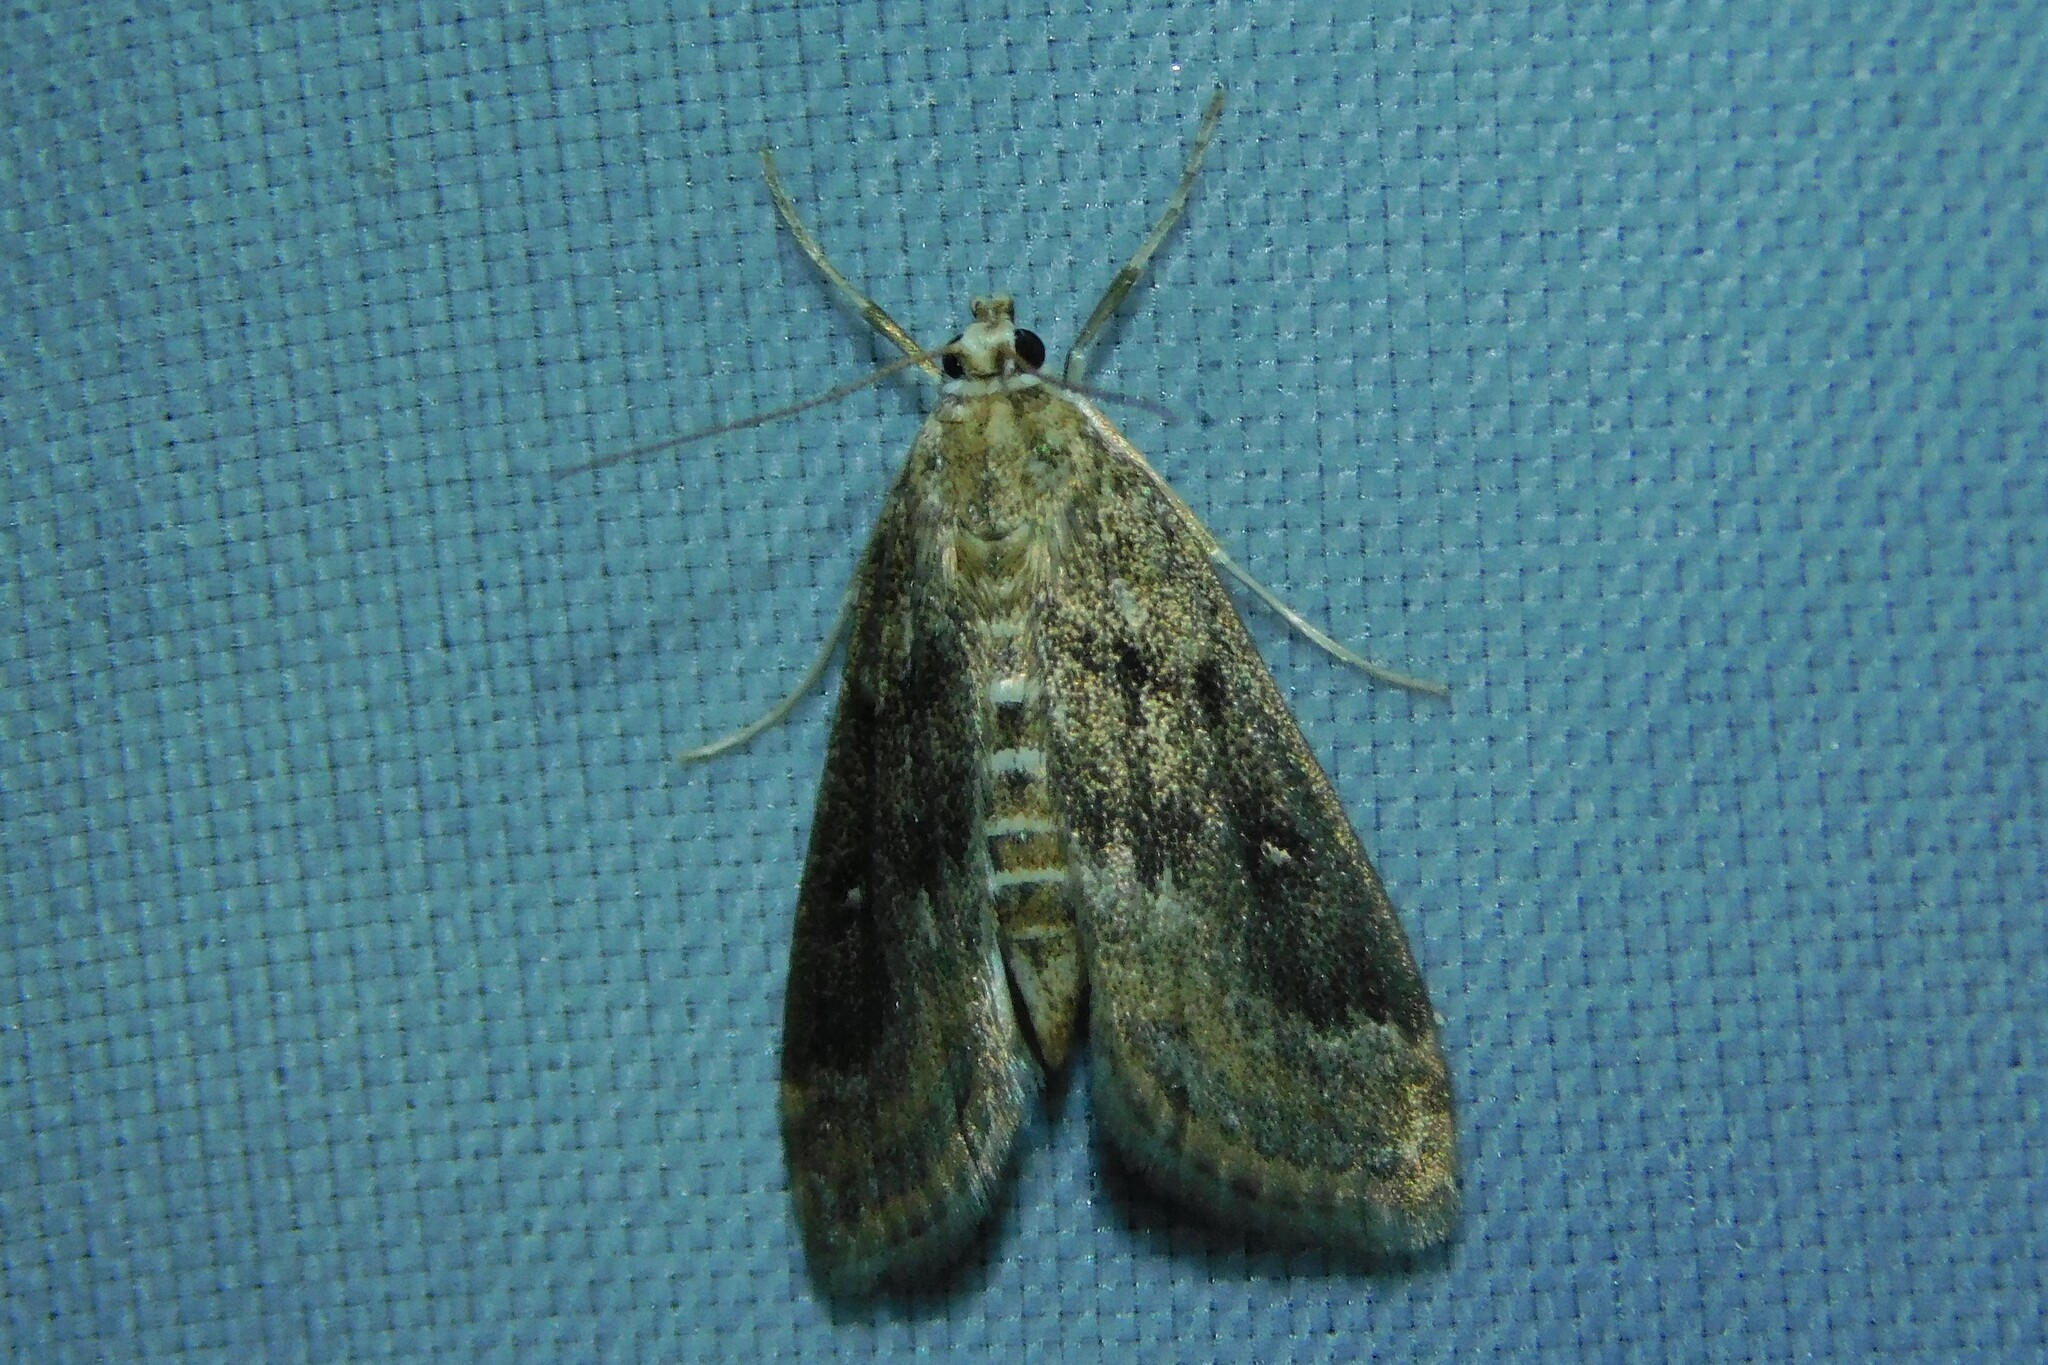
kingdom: Animalia
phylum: Arthropoda
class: Insecta
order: Lepidoptera
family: Crambidae
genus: Parapoynx
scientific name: Parapoynx stratiotata
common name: Ringed china-mark
